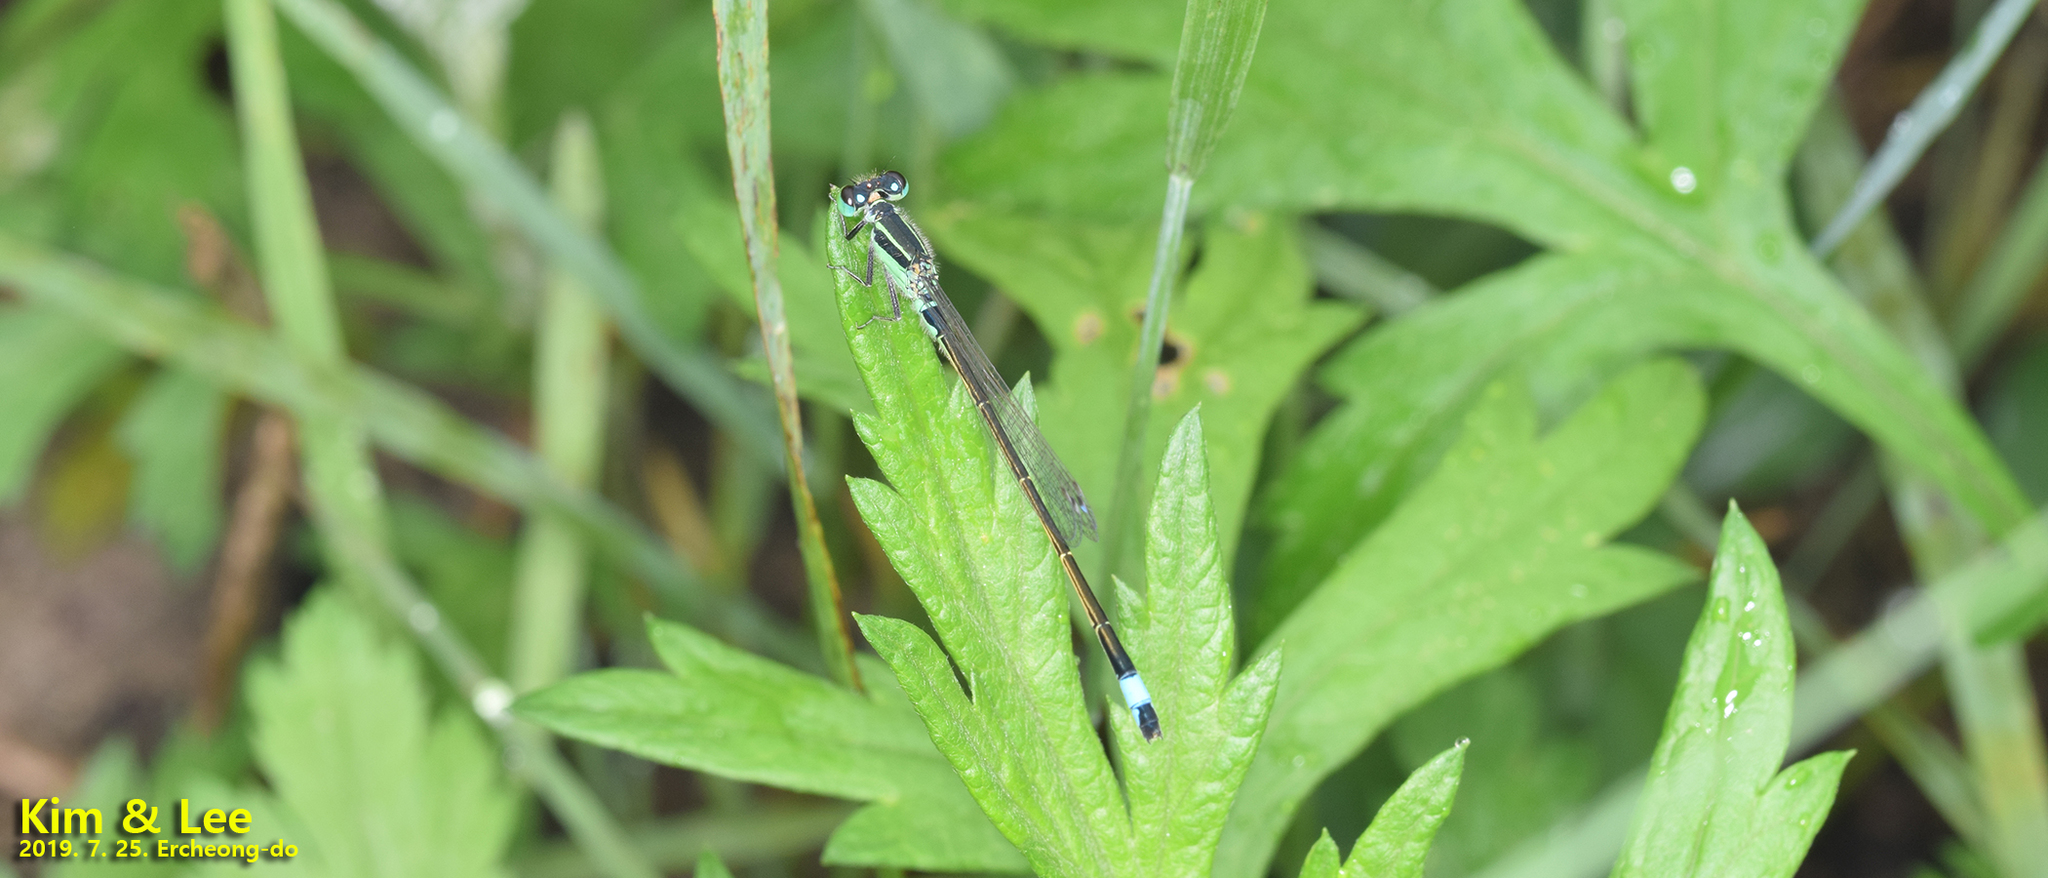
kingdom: Animalia
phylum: Arthropoda
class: Insecta
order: Odonata
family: Coenagrionidae
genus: Ischnura
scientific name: Ischnura senegalensis
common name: Tropical bluetail
